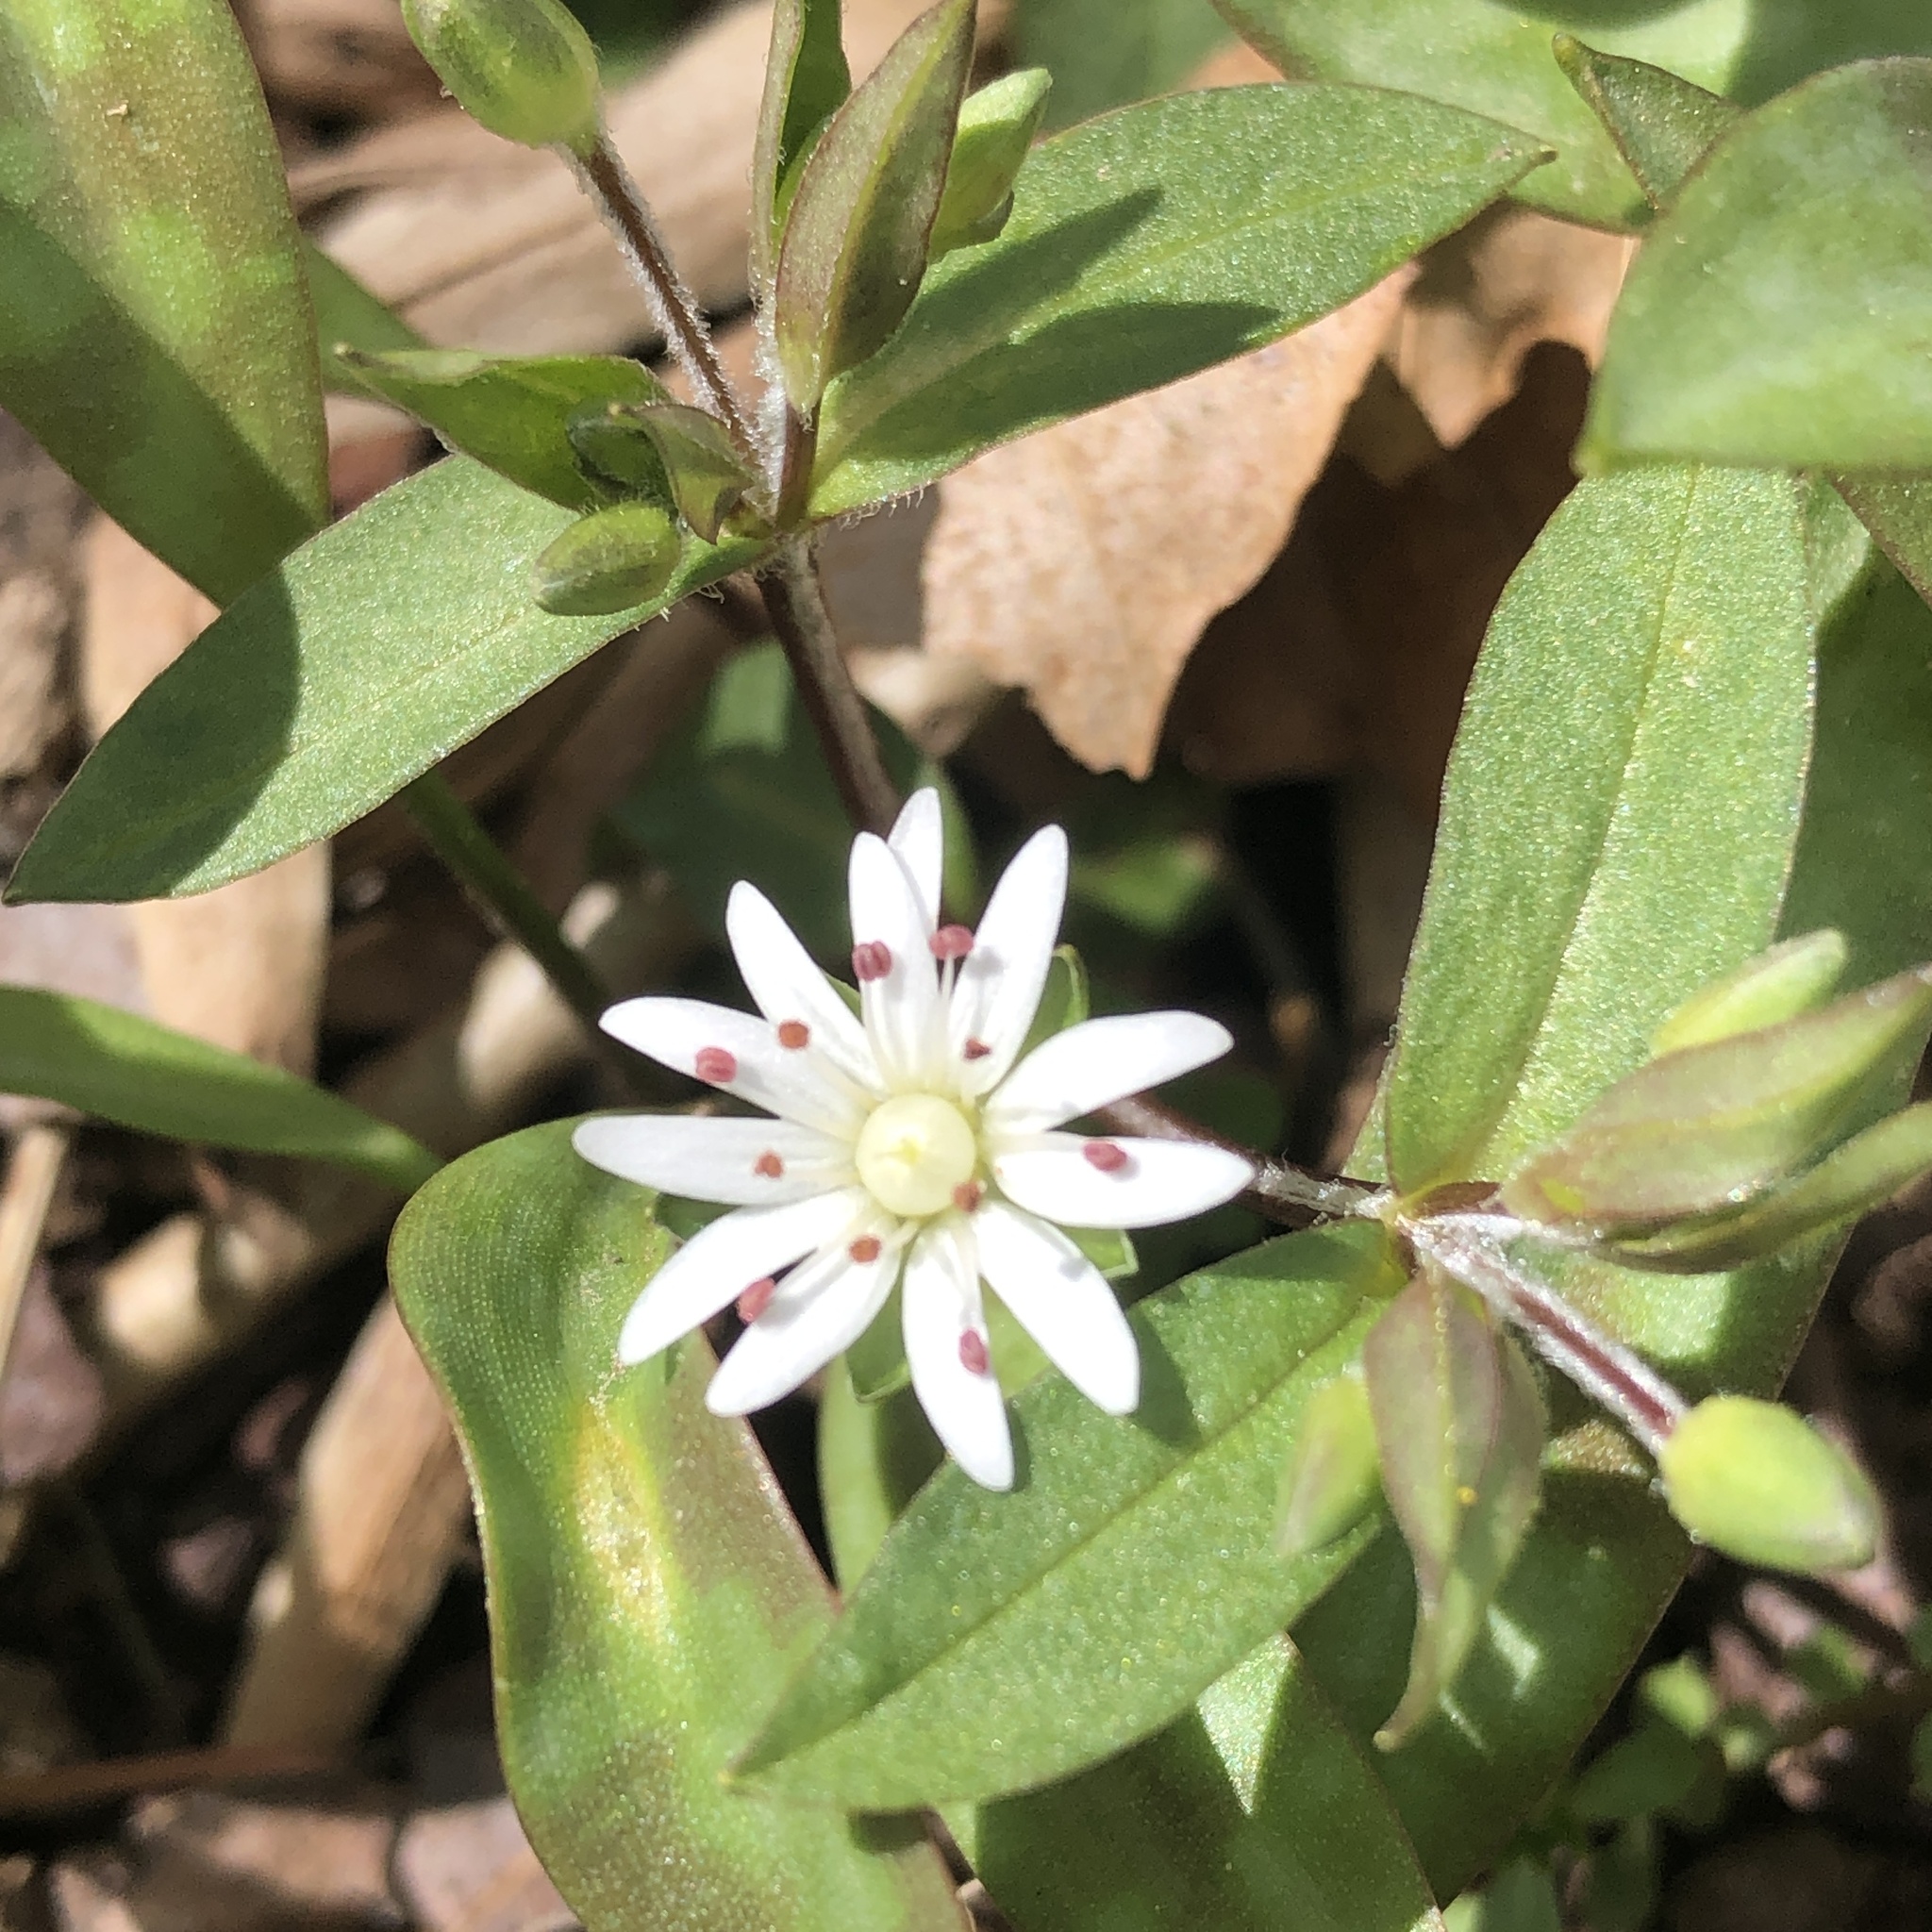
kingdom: Plantae
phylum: Tracheophyta
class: Magnoliopsida
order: Caryophyllales
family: Caryophyllaceae
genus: Stellaria
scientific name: Stellaria pubera
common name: Star chickweed
